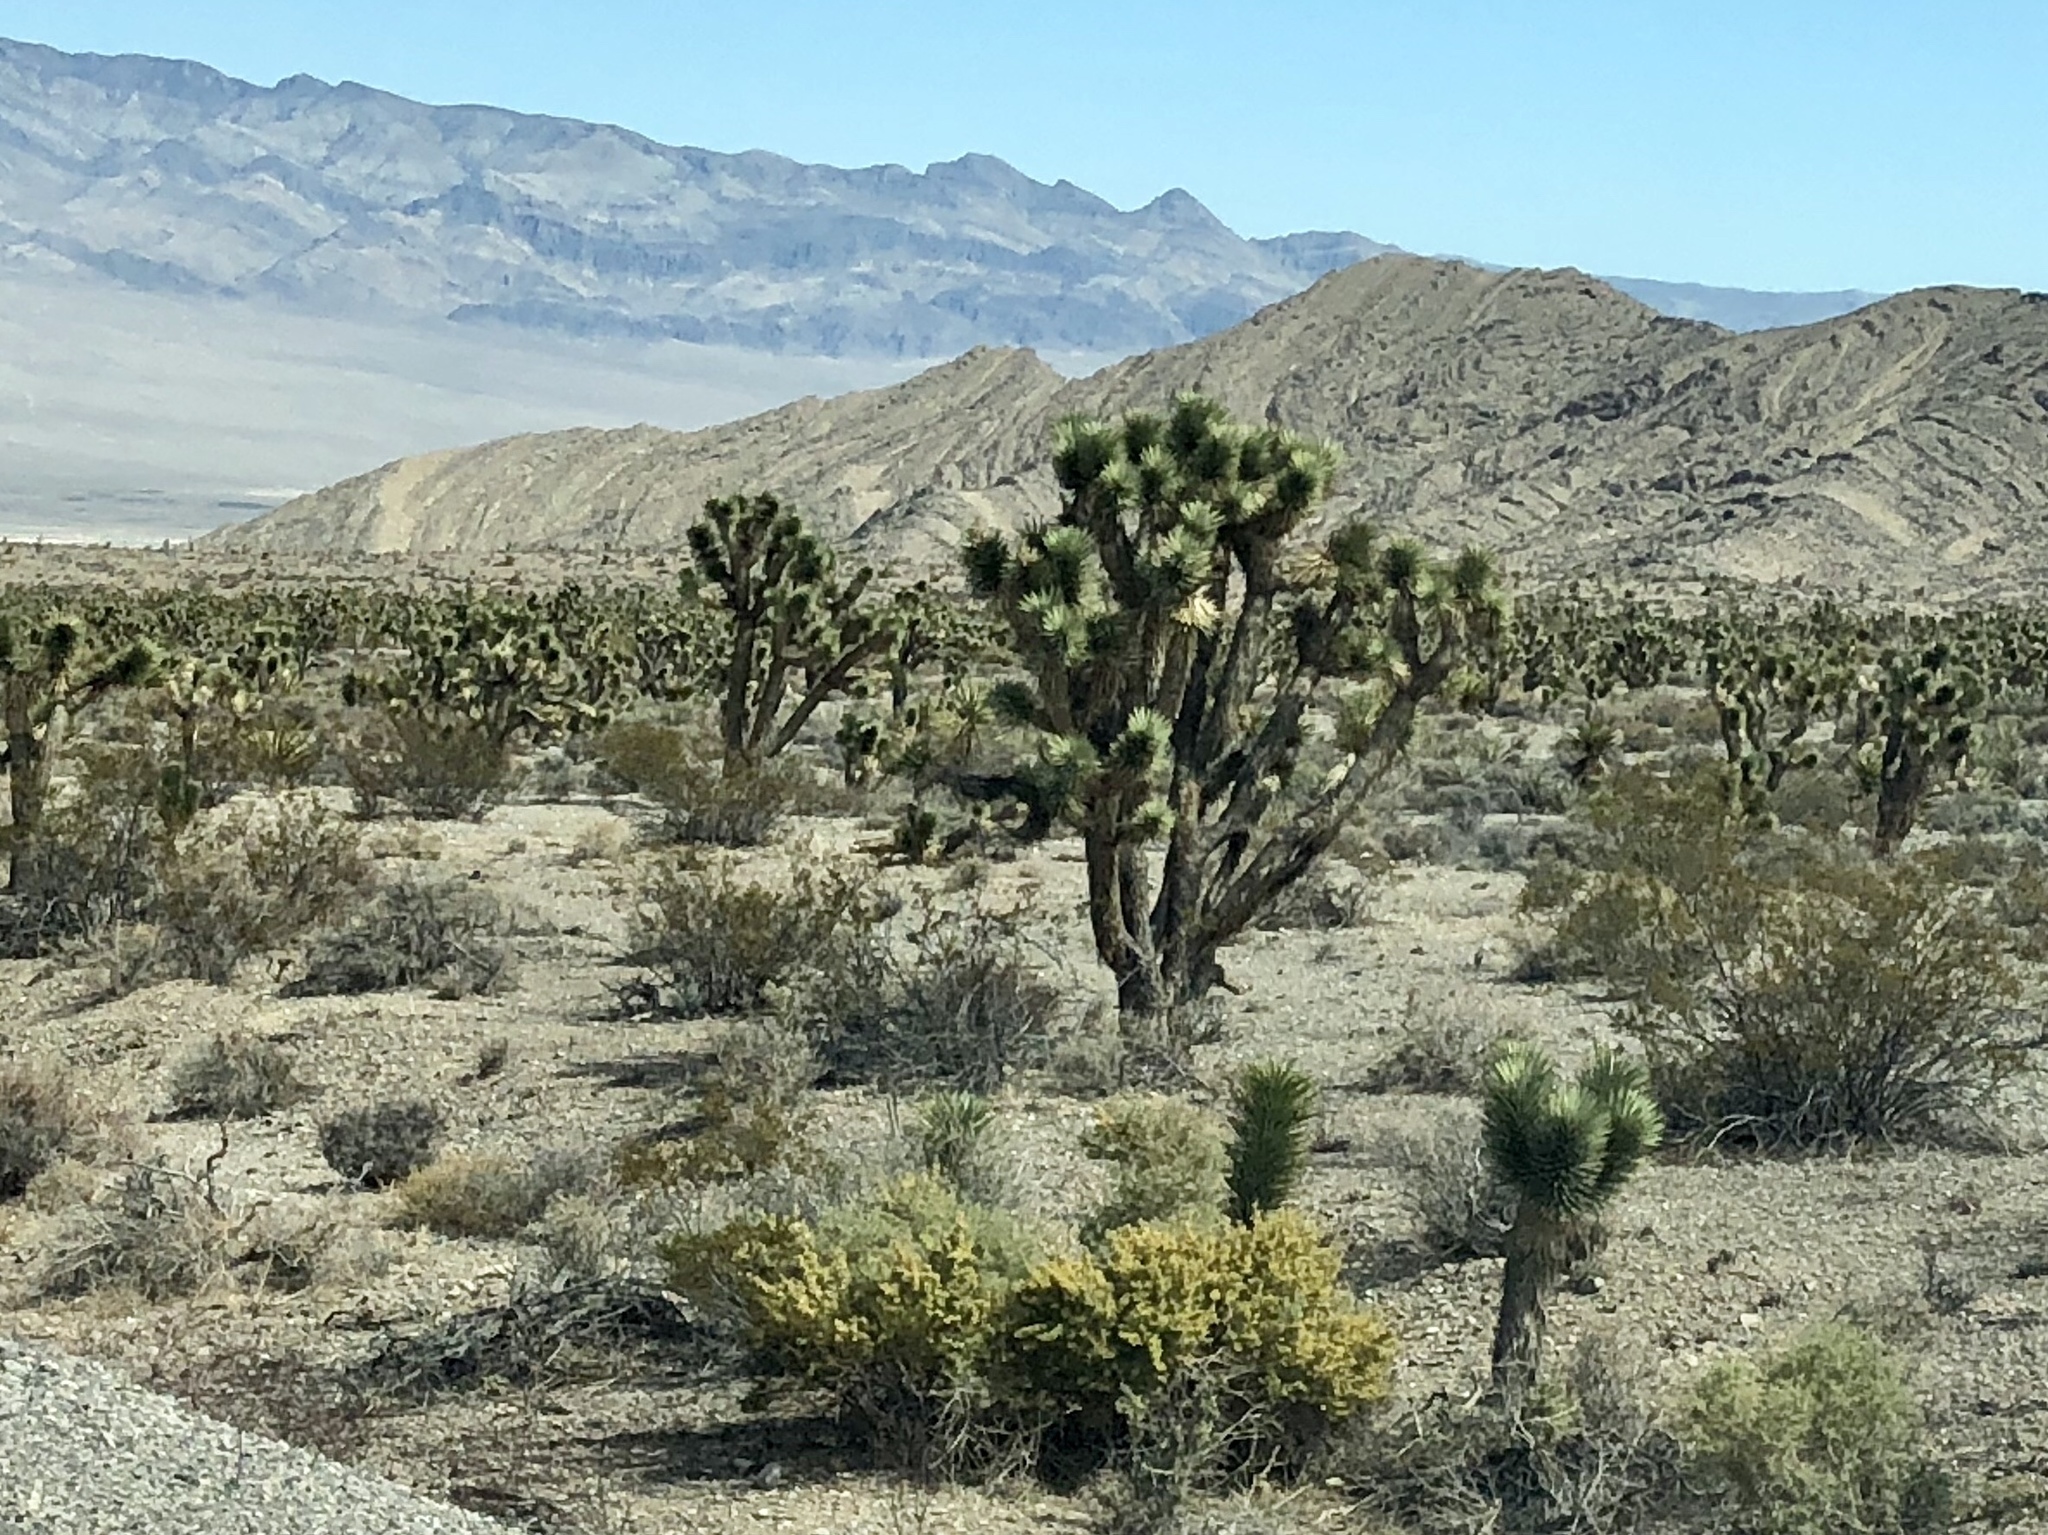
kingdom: Plantae
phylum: Tracheophyta
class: Liliopsida
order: Asparagales
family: Asparagaceae
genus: Yucca
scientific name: Yucca brevifolia
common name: Joshua tree
